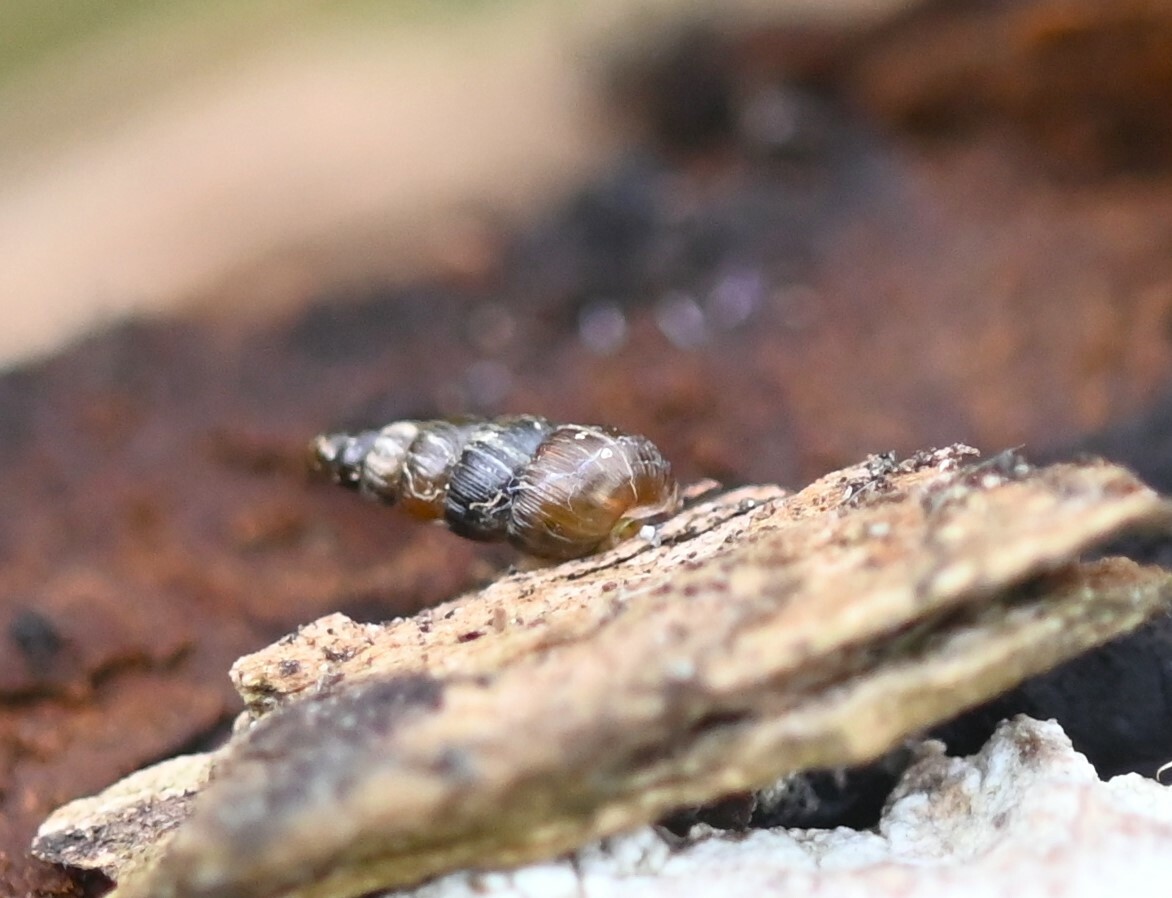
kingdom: Animalia
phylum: Mollusca
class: Gastropoda
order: Stylommatophora
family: Clausiliidae
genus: Balea
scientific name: Balea heydeni
